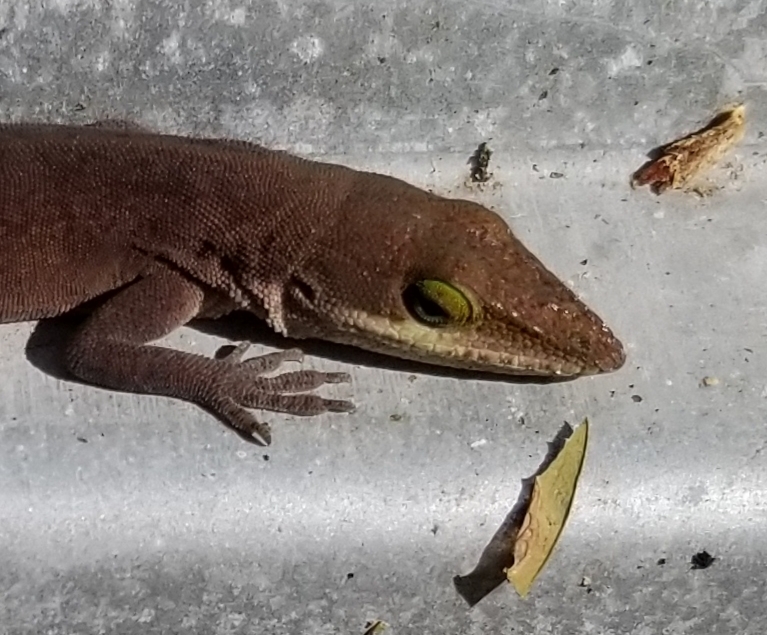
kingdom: Animalia
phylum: Chordata
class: Squamata
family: Dactyloidae
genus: Anolis
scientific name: Anolis carolinensis
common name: Green anole
